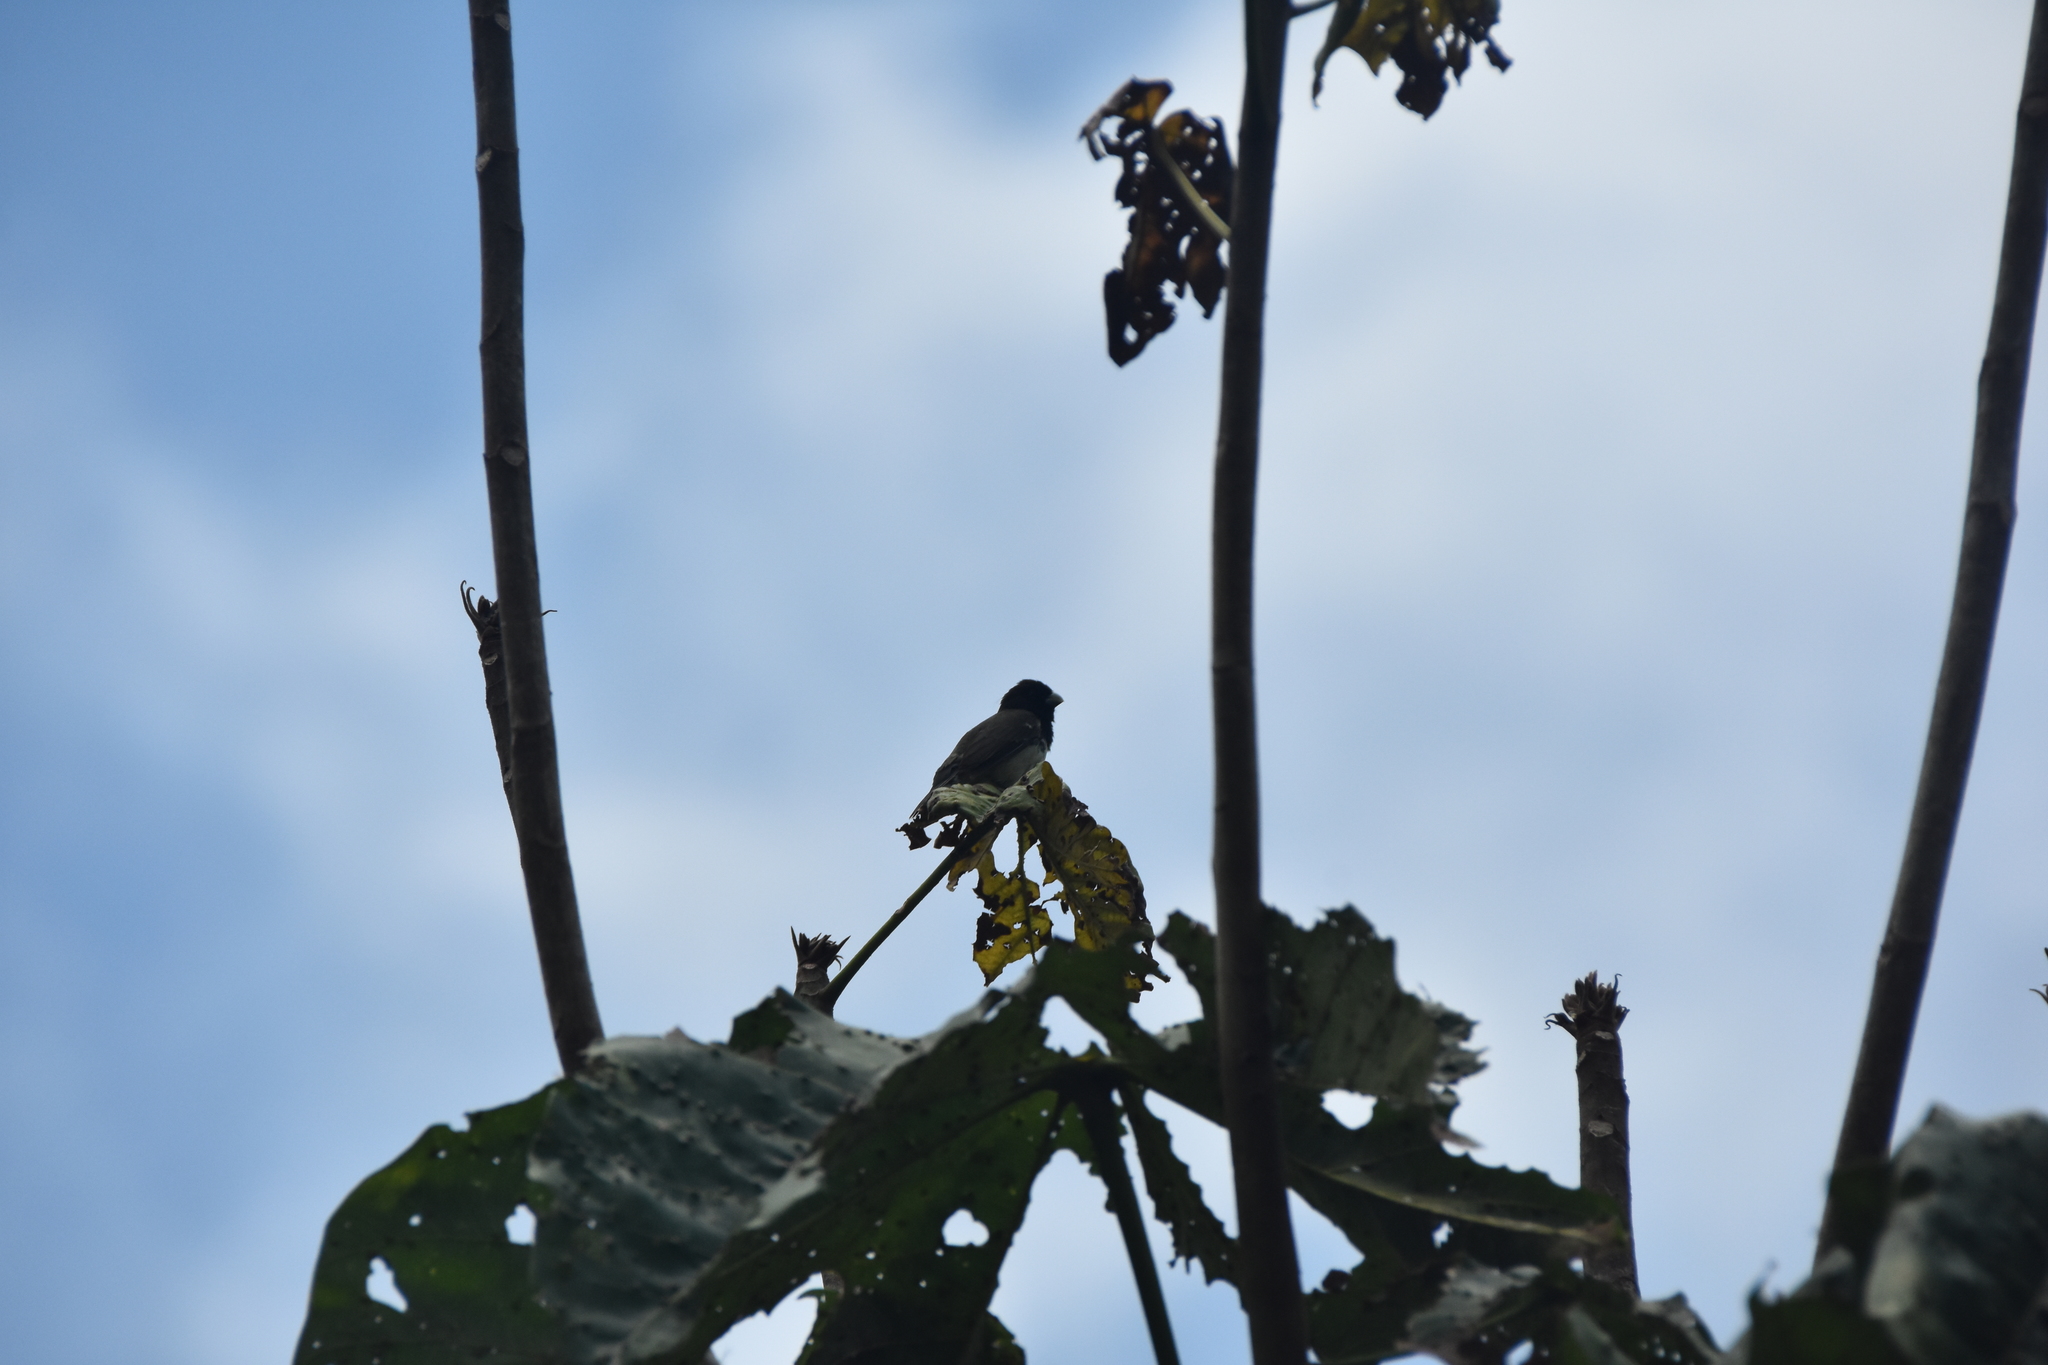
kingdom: Animalia
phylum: Chordata
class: Aves
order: Passeriformes
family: Thraupidae
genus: Sporophila
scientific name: Sporophila nigricollis
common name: Yellow-bellied seedeater
